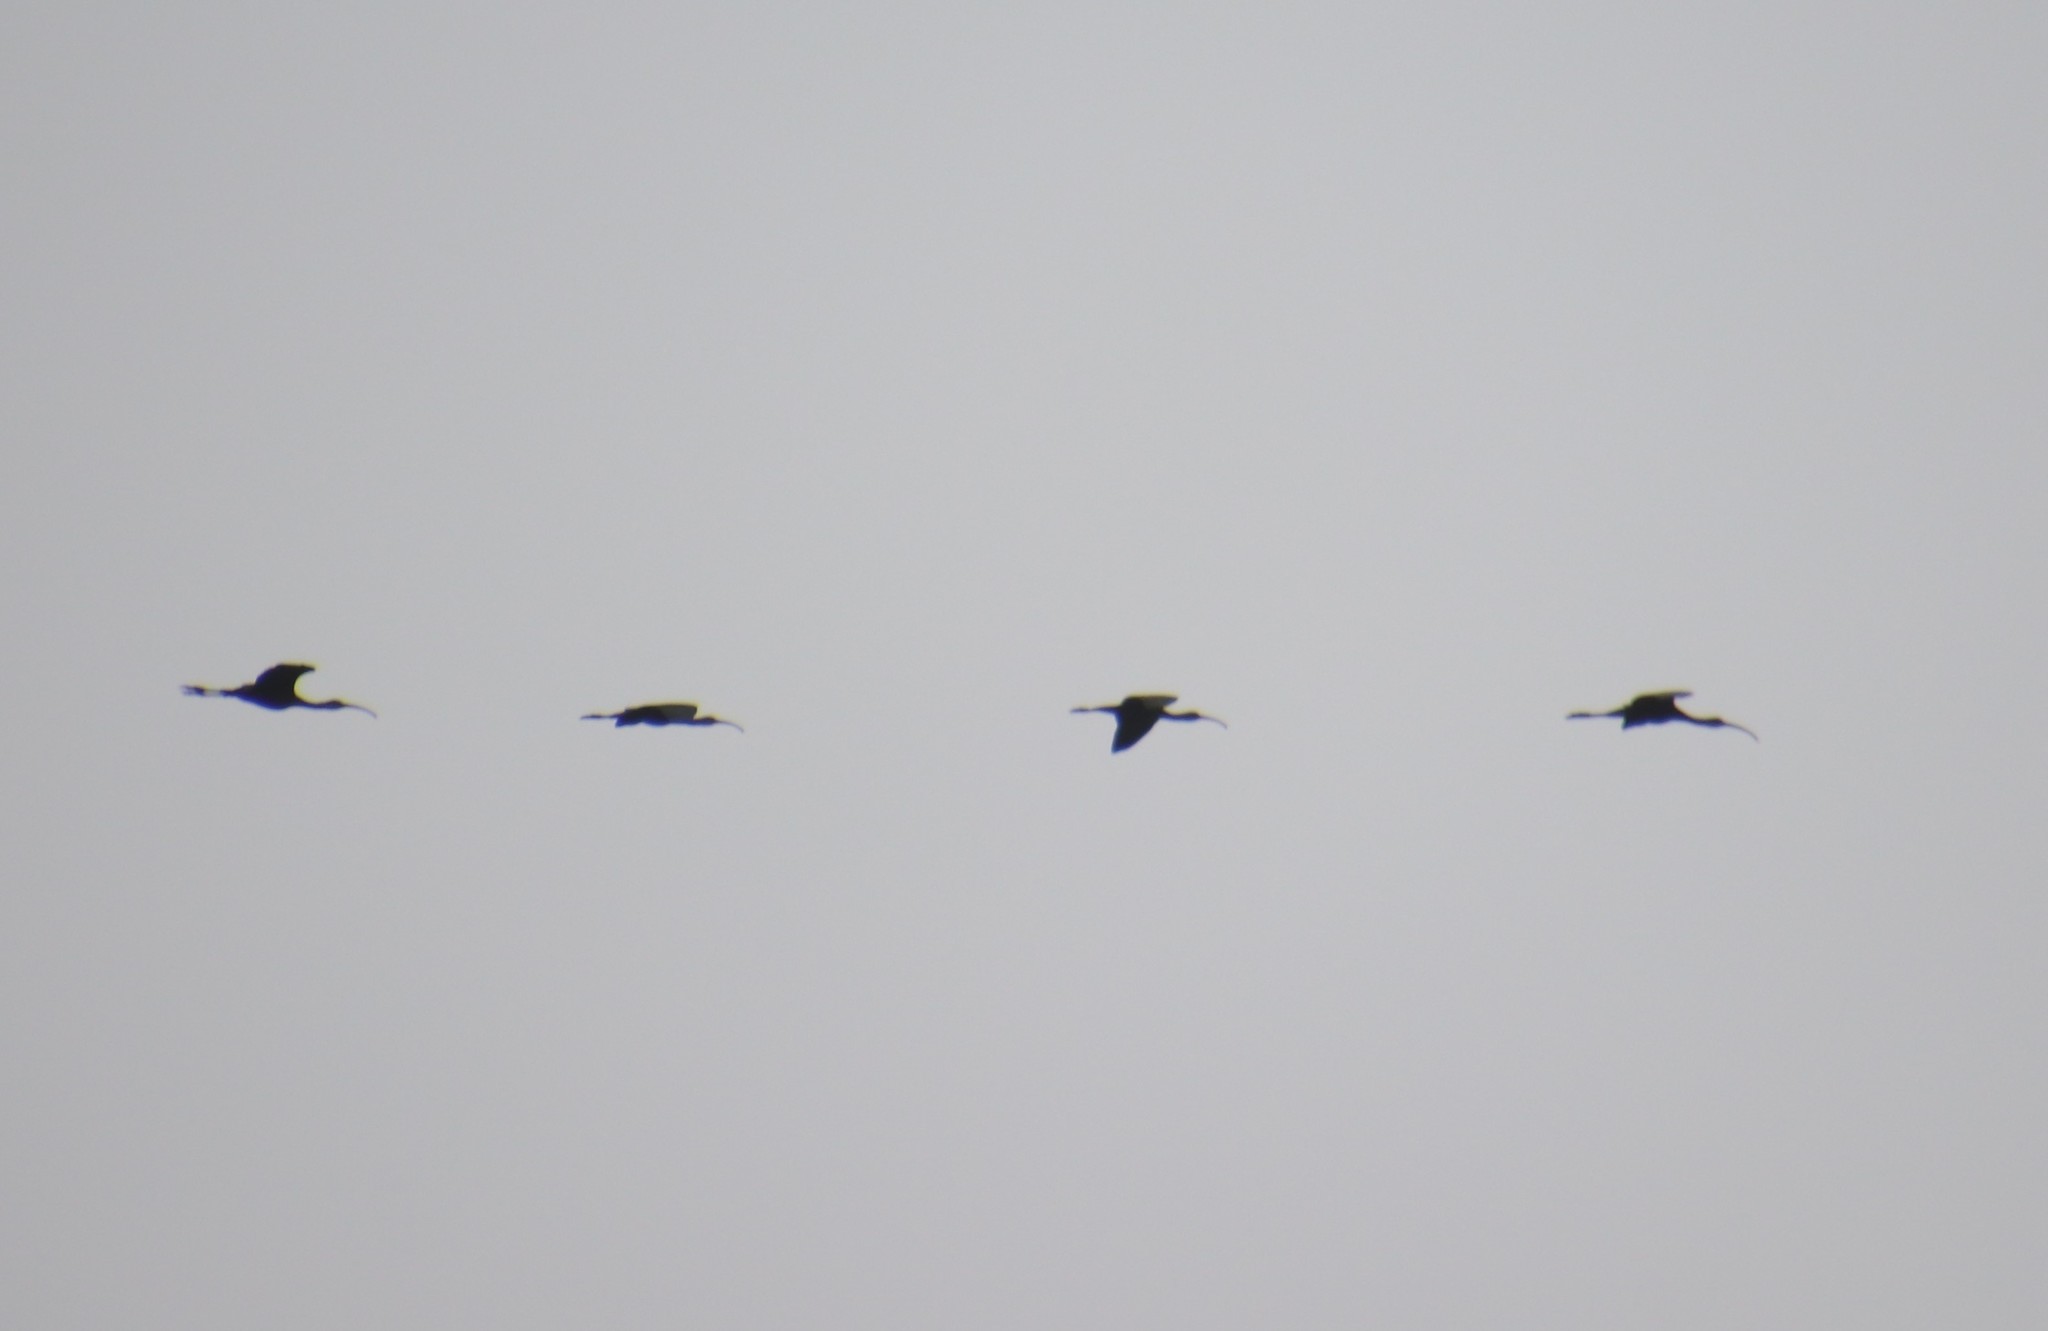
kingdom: Animalia
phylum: Chordata
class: Aves
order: Pelecaniformes
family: Threskiornithidae
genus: Plegadis
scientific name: Plegadis chihi
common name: White-faced ibis
